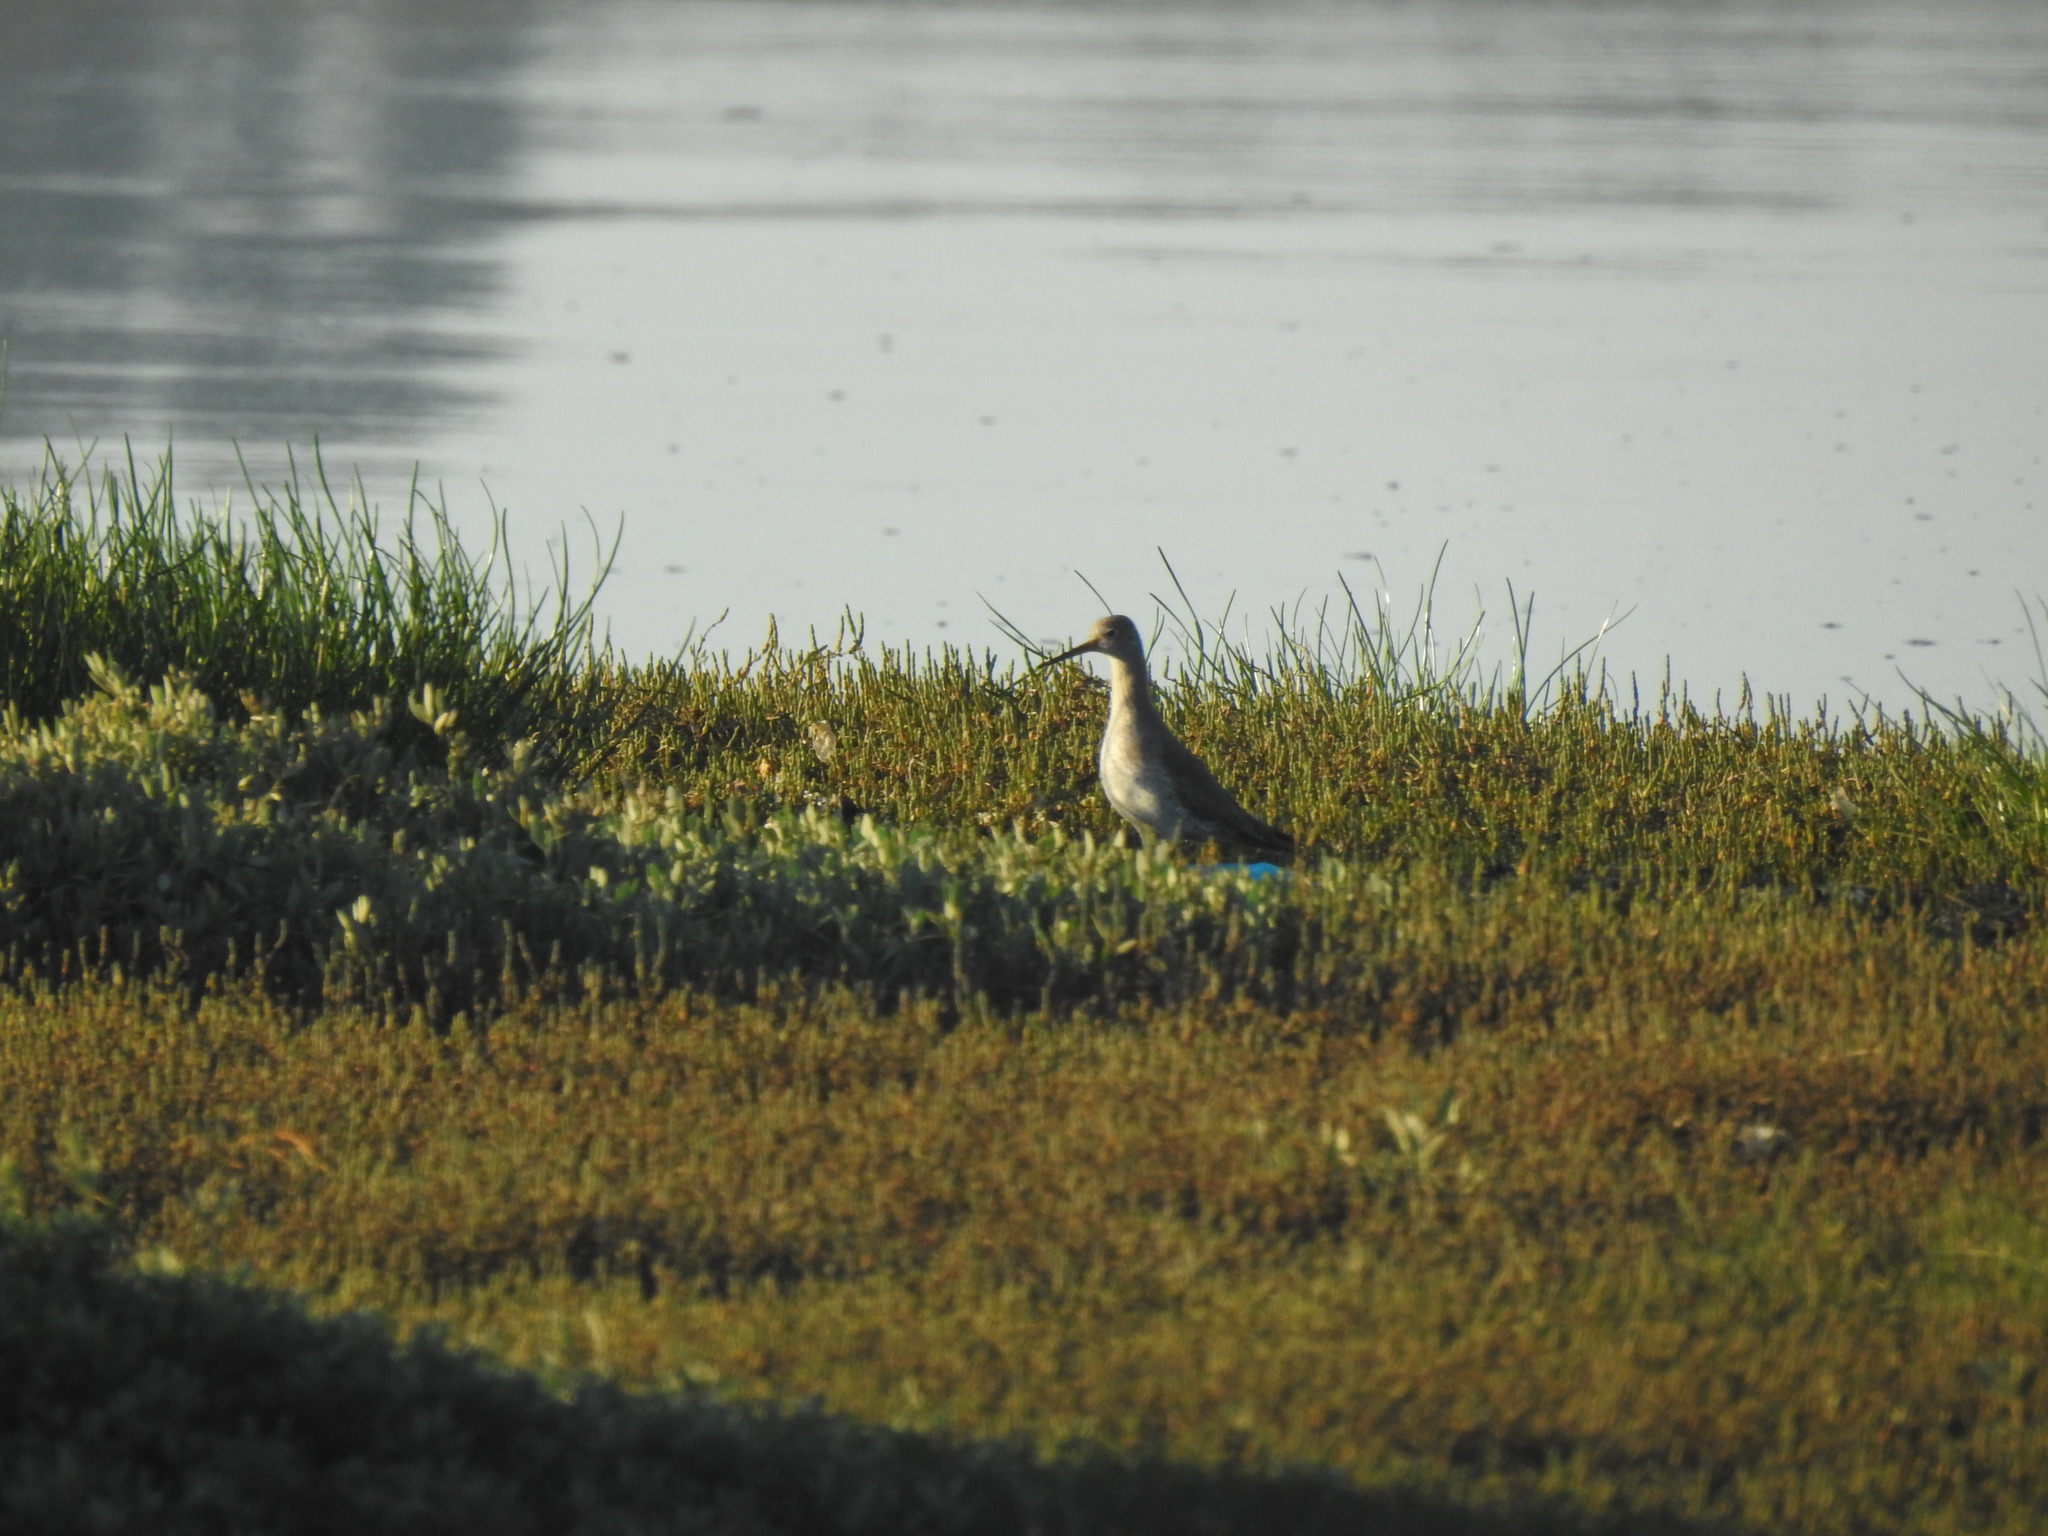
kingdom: Animalia
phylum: Chordata
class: Aves
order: Charadriiformes
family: Scolopacidae
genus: Tringa
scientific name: Tringa totanus
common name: Common redshank
